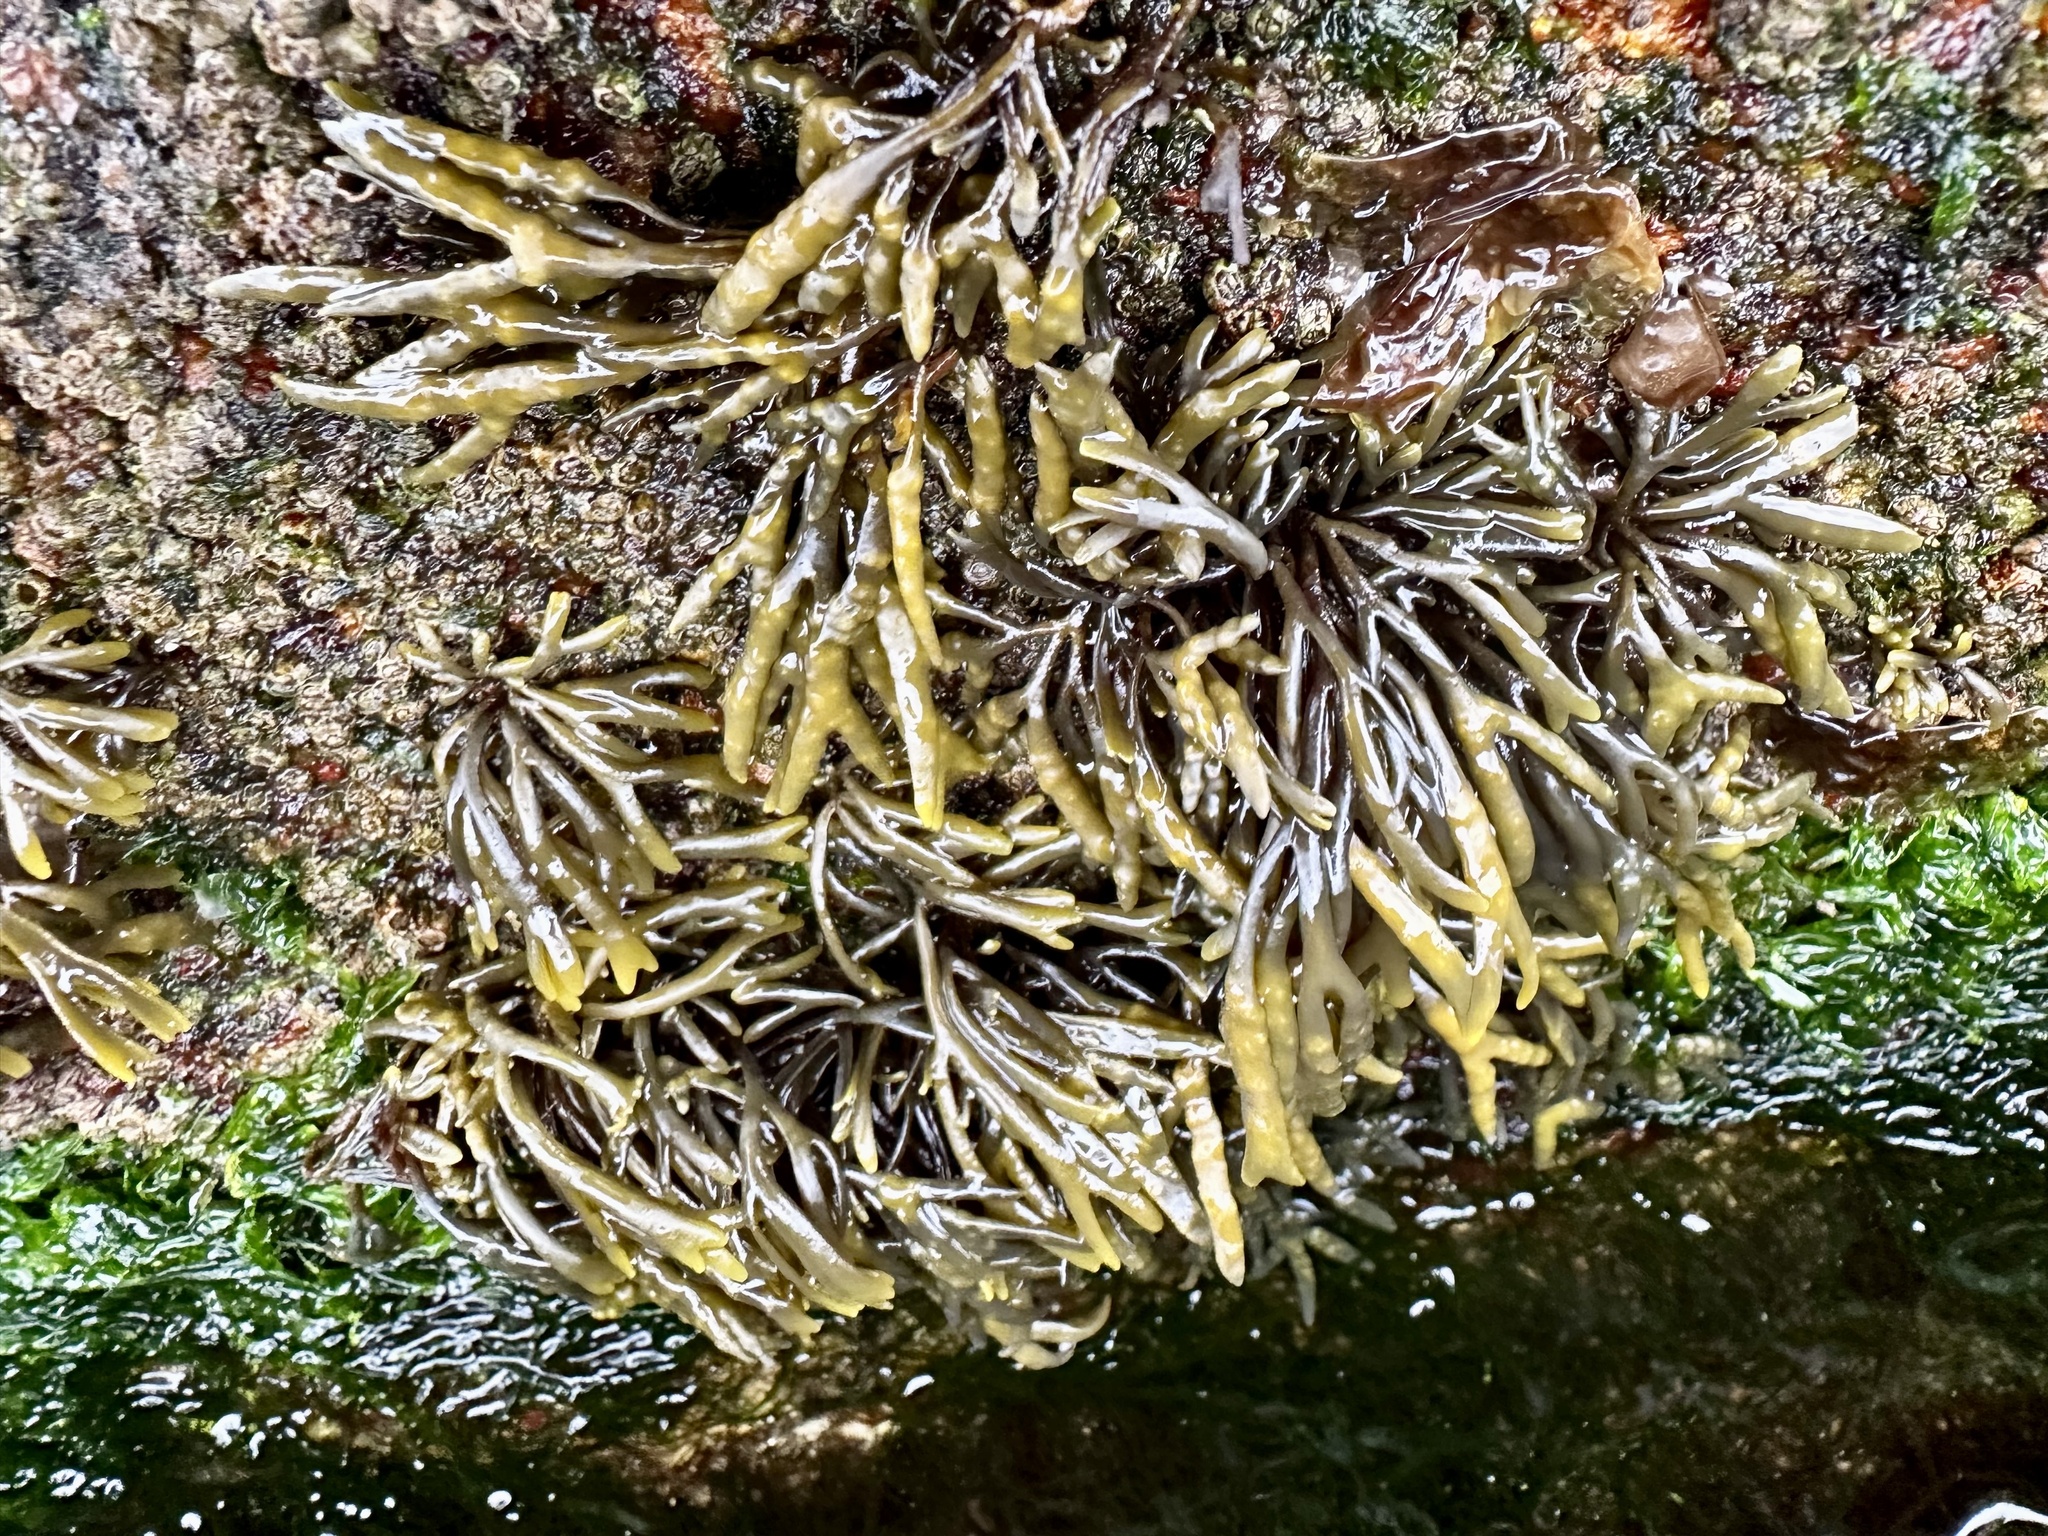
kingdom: Chromista
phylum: Ochrophyta
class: Phaeophyceae
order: Fucales
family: Fucaceae
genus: Pelvetia
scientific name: Pelvetia canaliculata
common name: Channelled wrack
